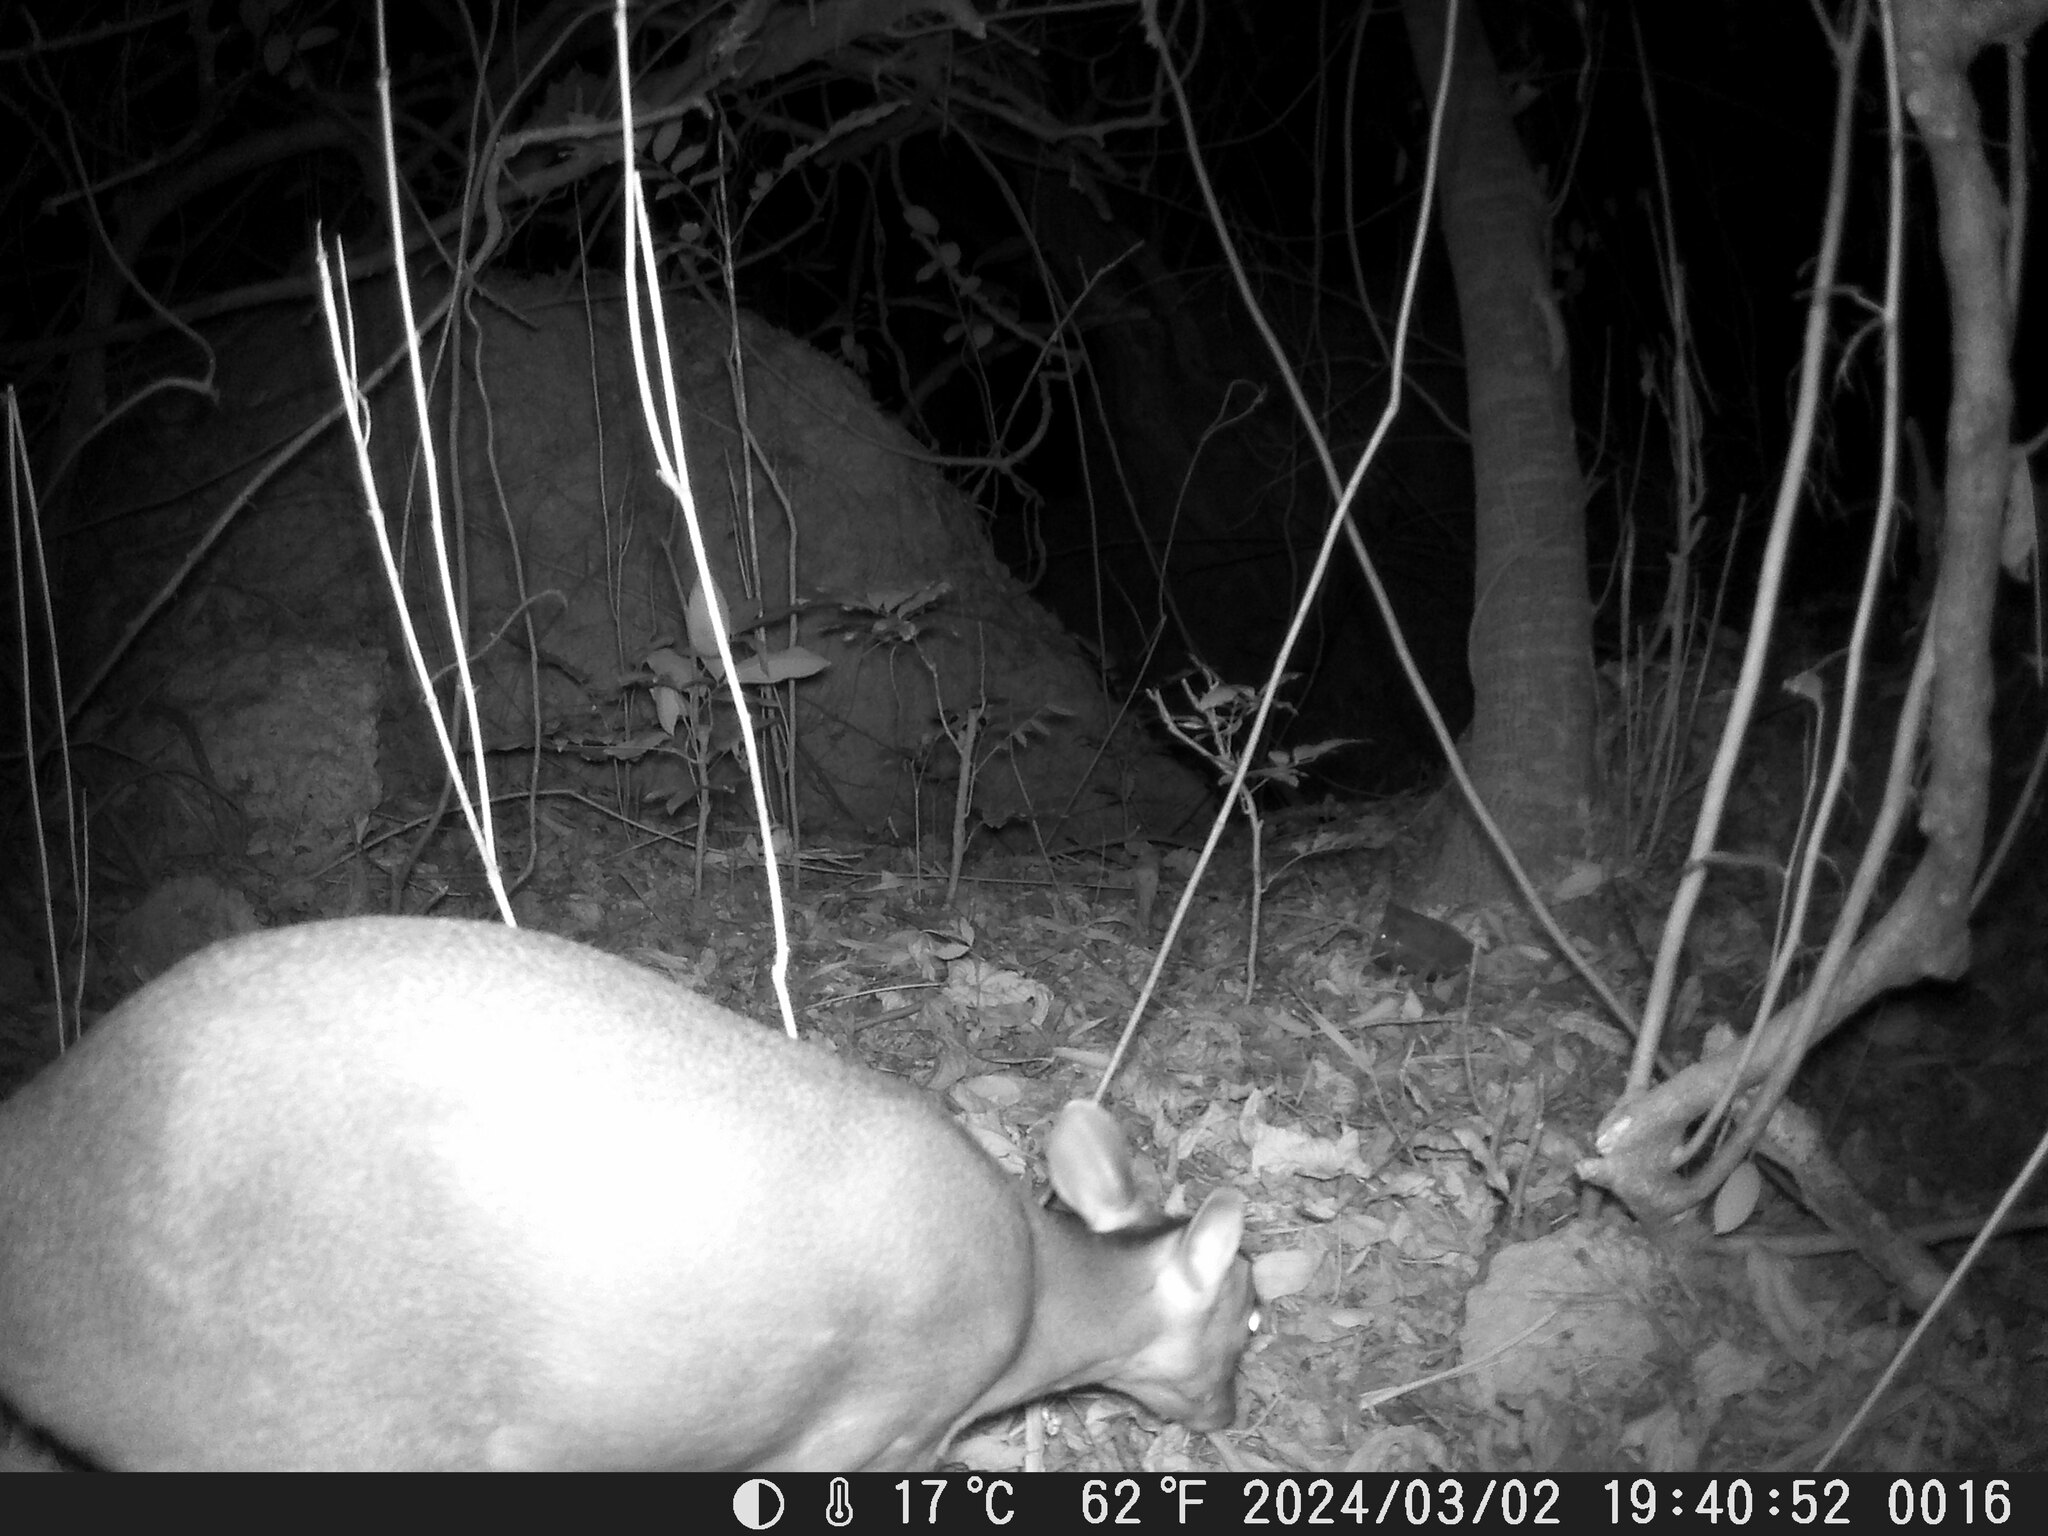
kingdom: Animalia
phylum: Chordata
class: Mammalia
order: Artiodactyla
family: Cervidae
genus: Muntiacus
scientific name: Muntiacus reevesi
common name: Reeves' muntjac
